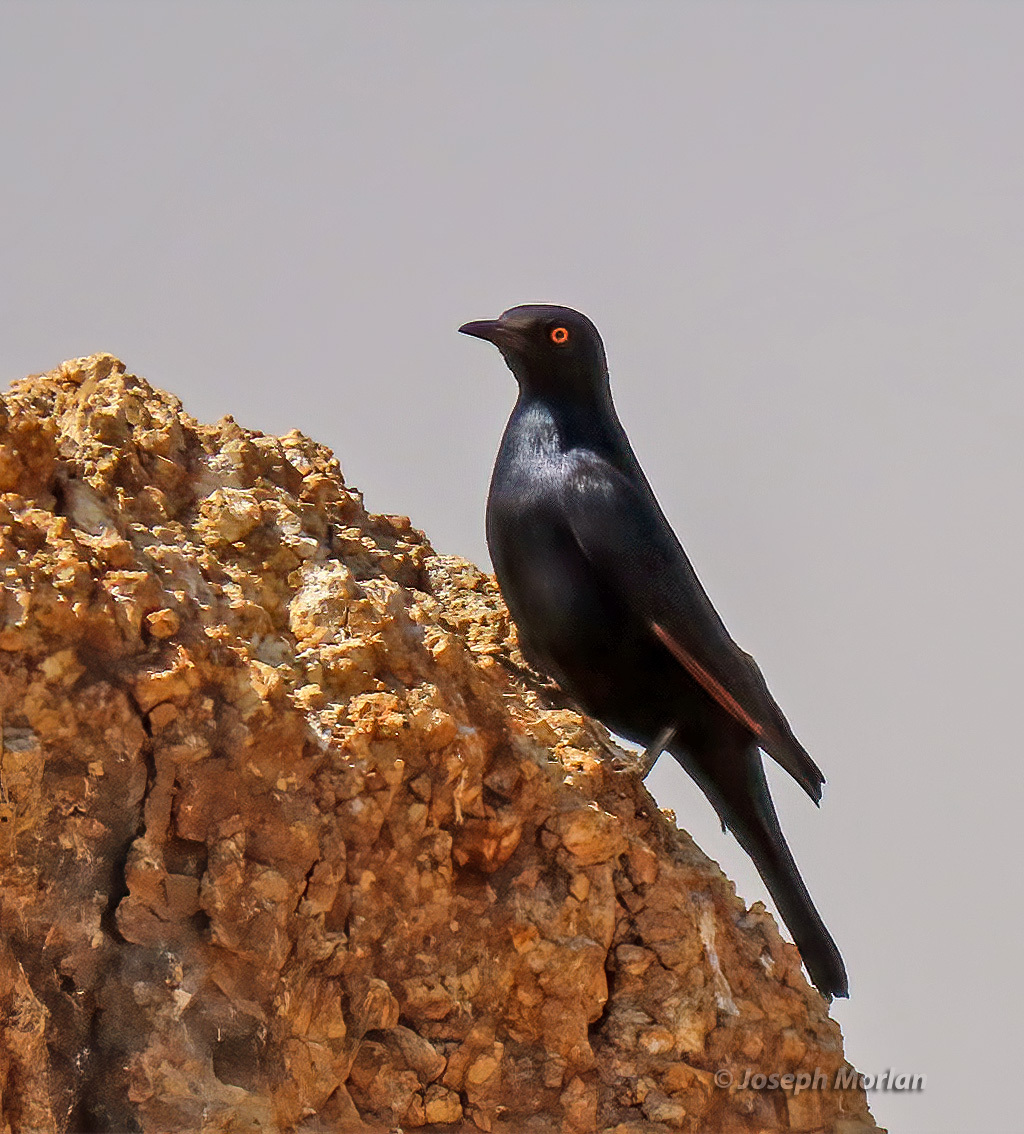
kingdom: Animalia
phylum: Chordata
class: Aves
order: Passeriformes
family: Sturnidae
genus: Onychognathus
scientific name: Onychognathus nabouroup
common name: Pale-winged starling
